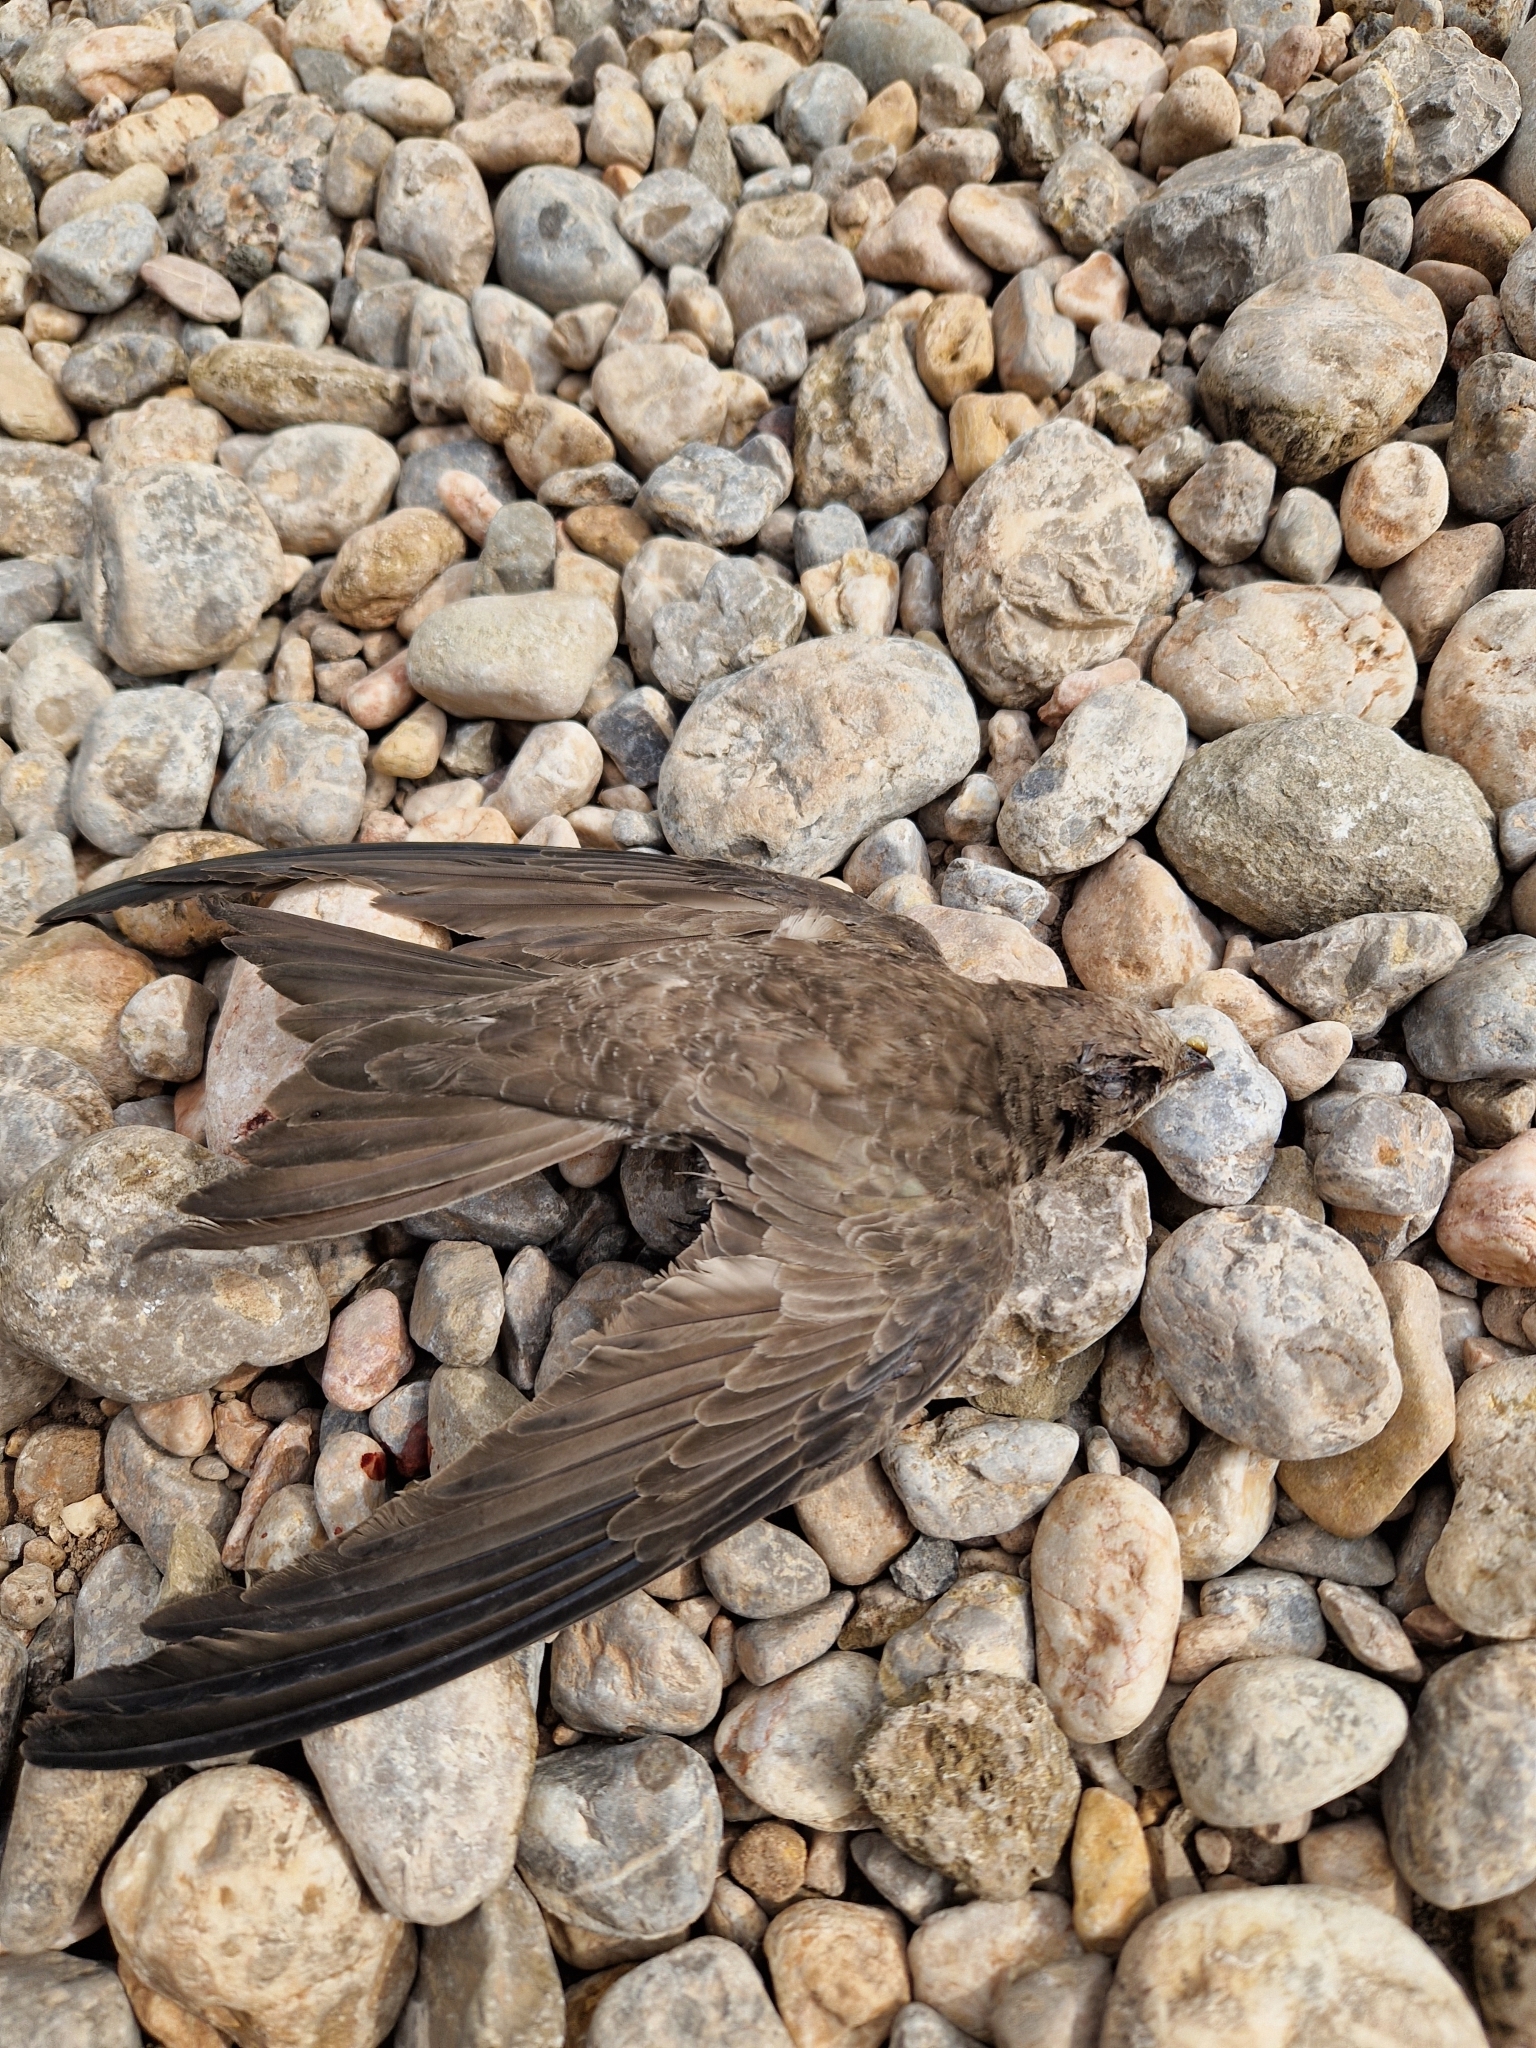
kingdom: Animalia
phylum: Chordata
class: Aves
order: Apodiformes
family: Apodidae
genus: Apus
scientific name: Apus pallidus
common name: Pallid swift
